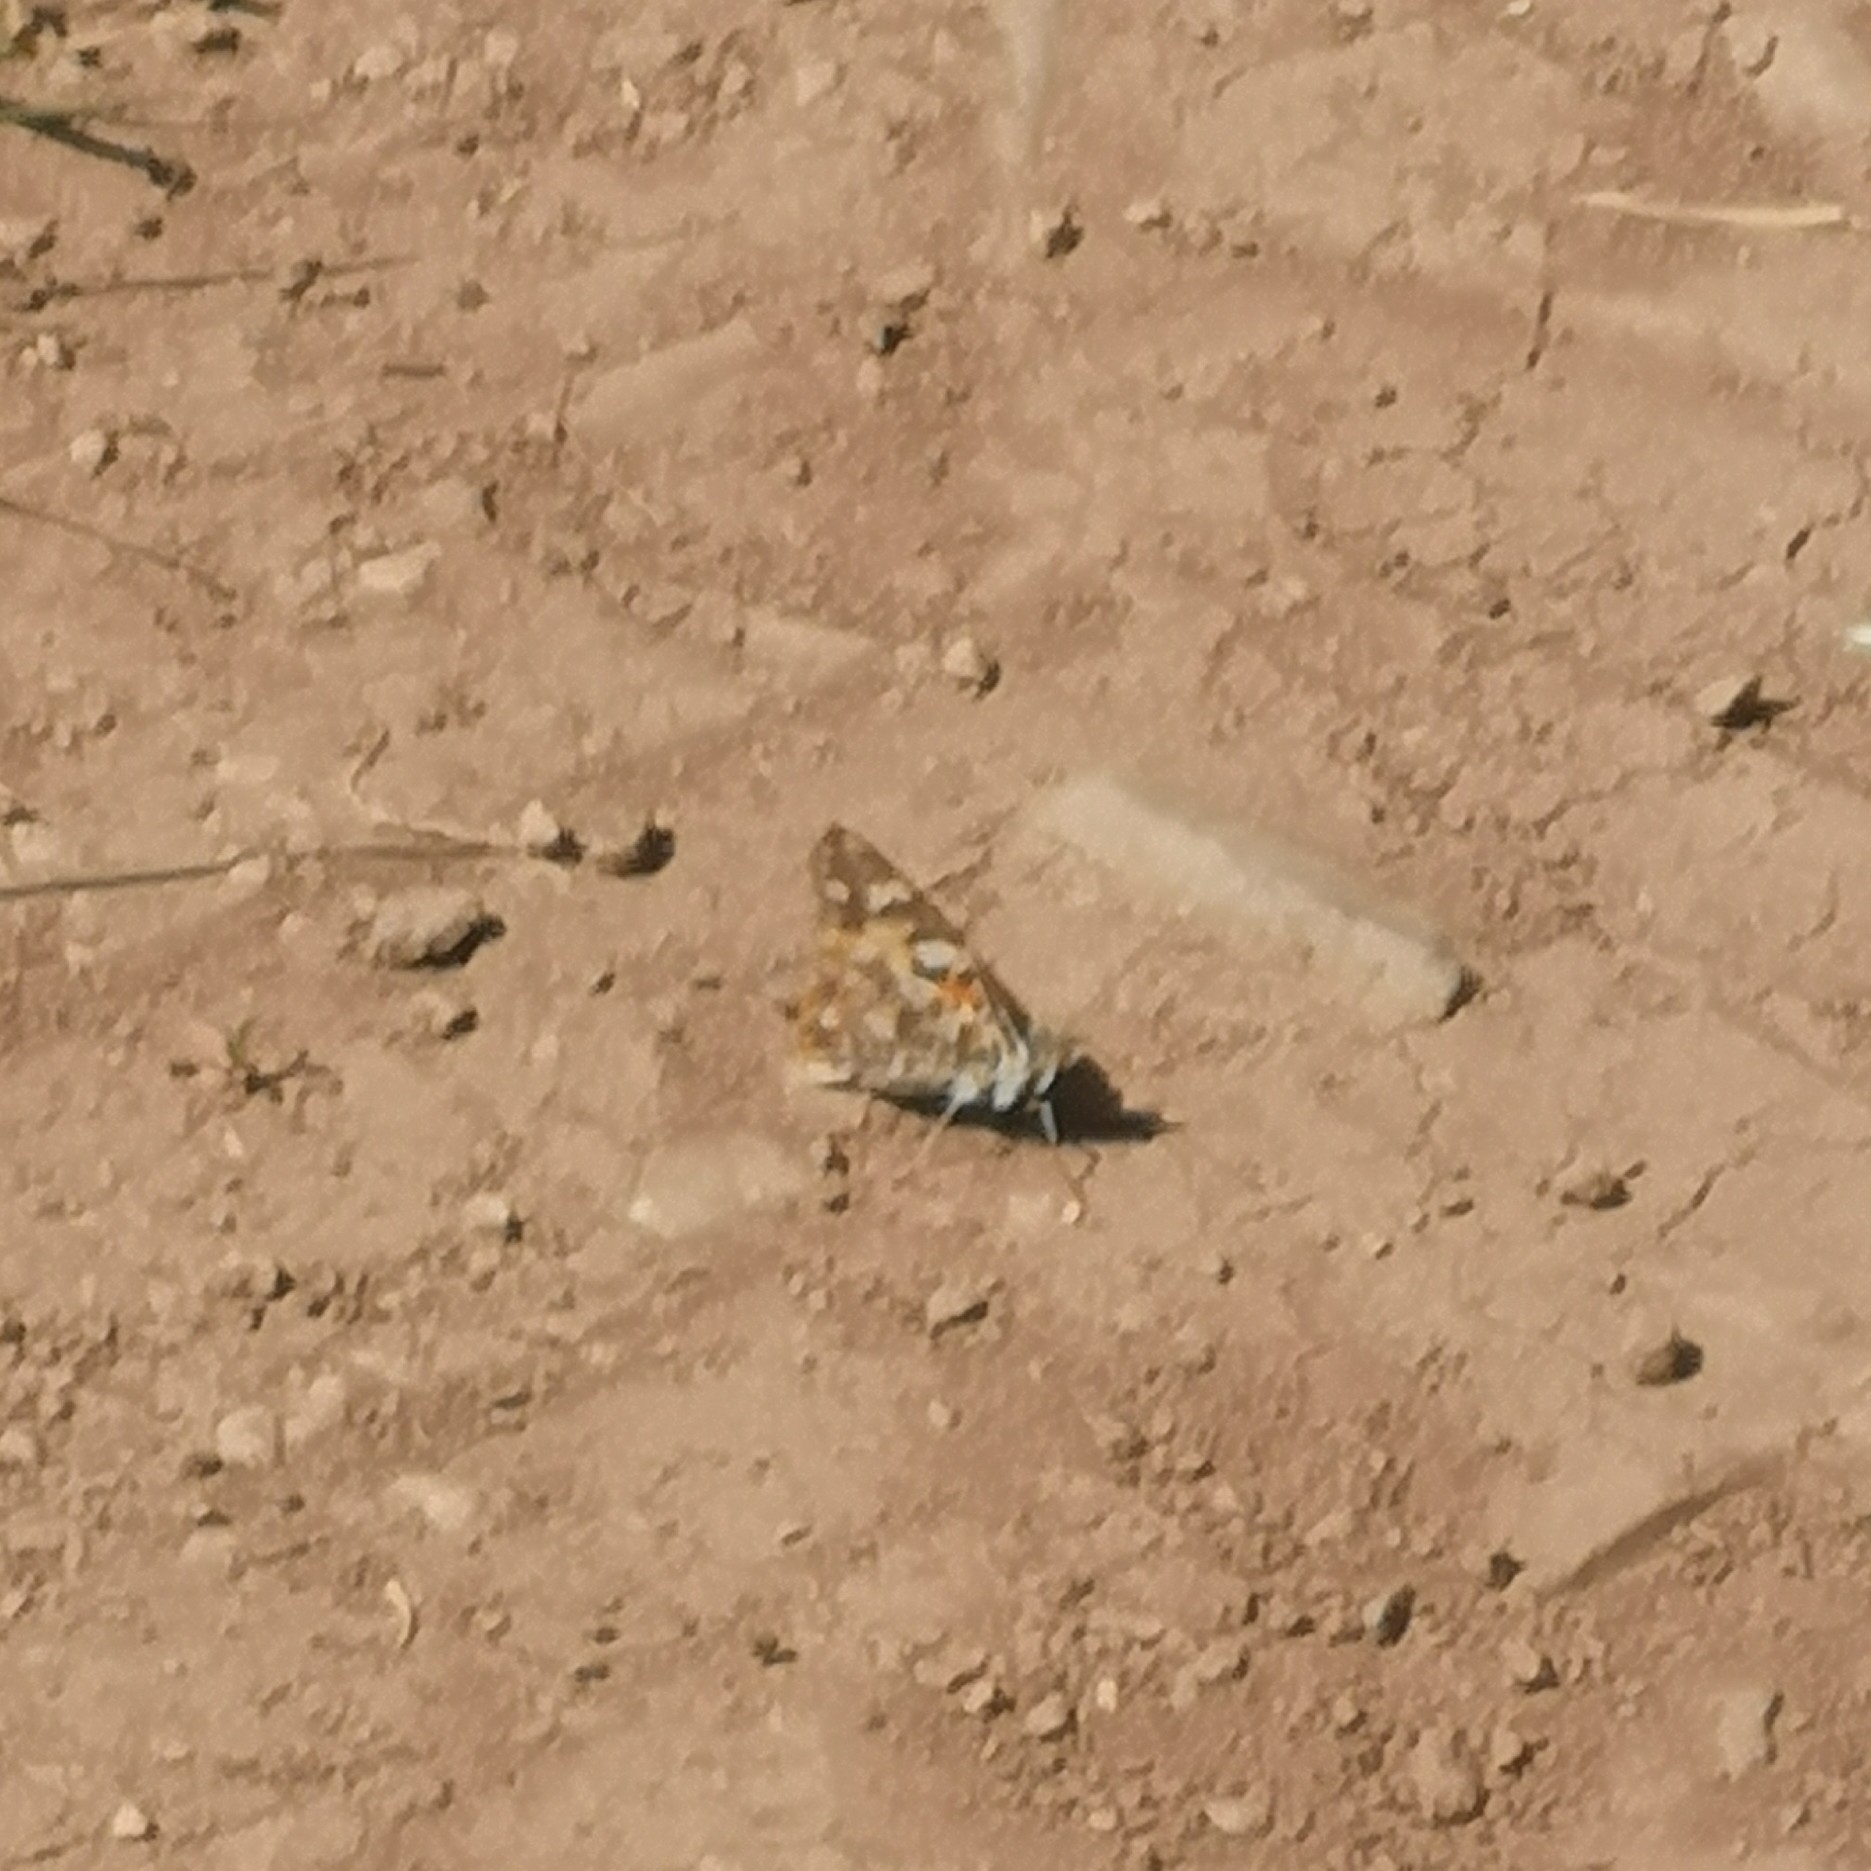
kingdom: Animalia
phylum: Arthropoda
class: Insecta
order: Lepidoptera
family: Nymphalidae
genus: Vanessa
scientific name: Vanessa cardui
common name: Painted lady
